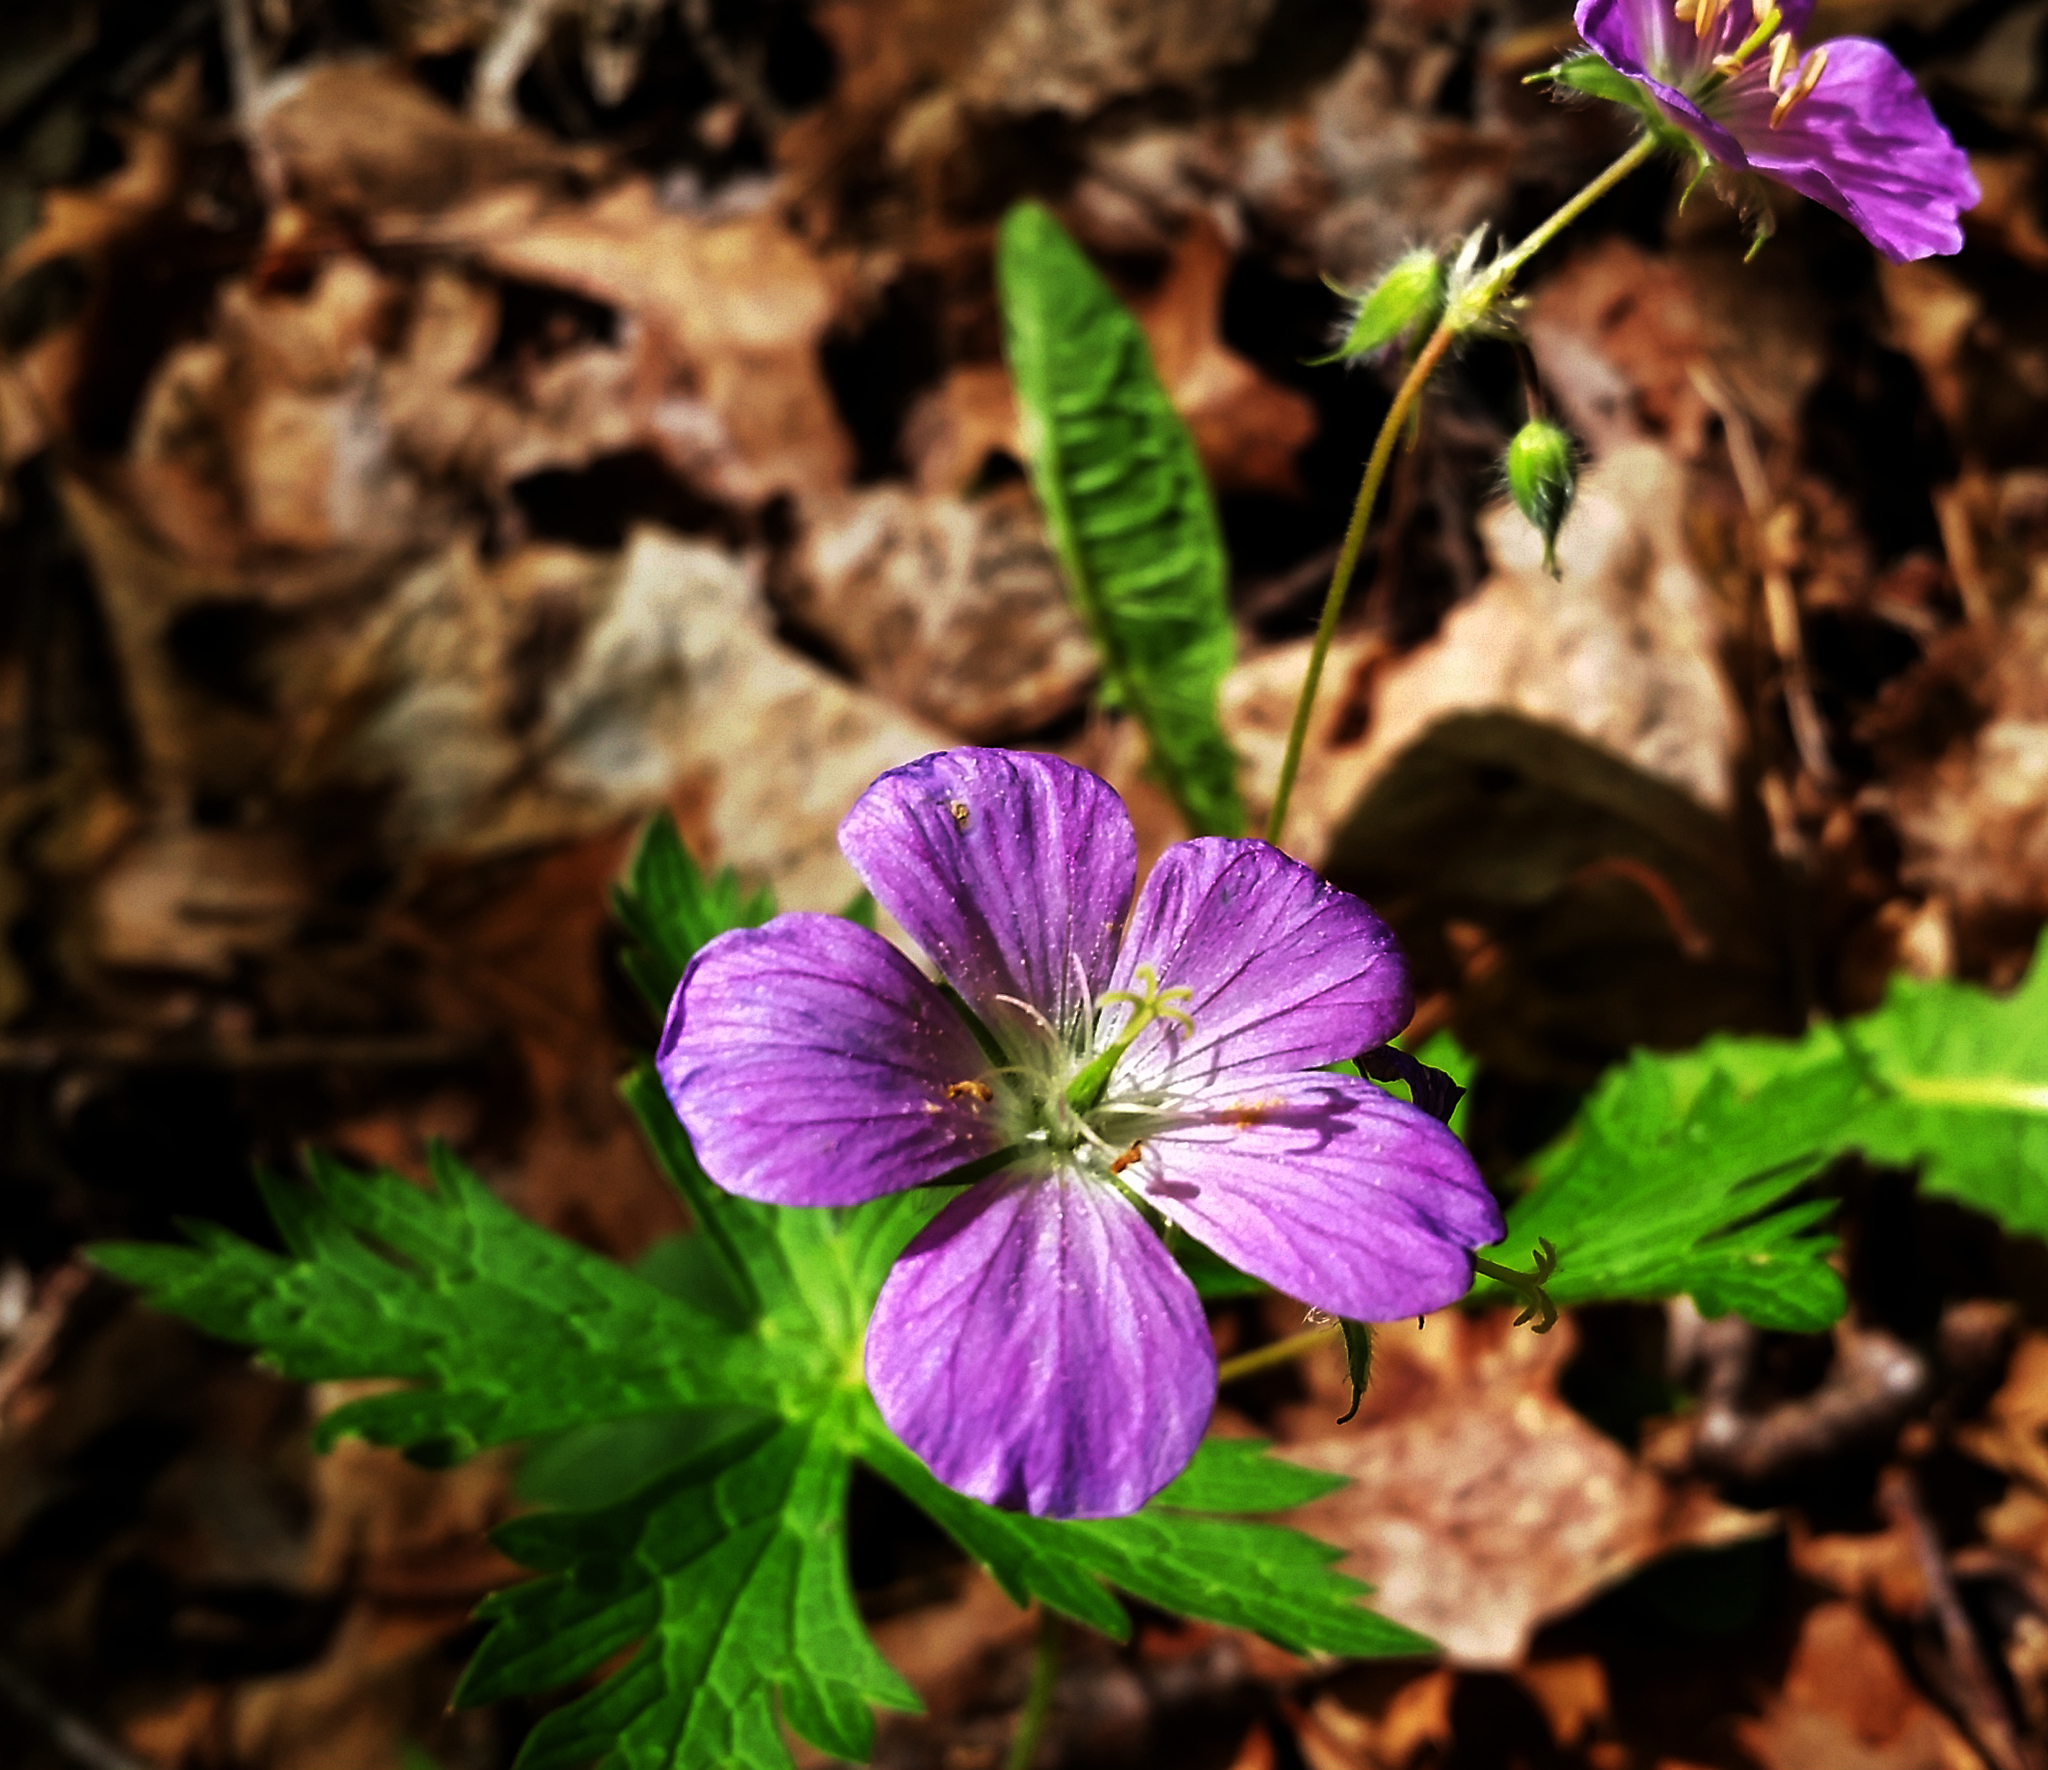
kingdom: Plantae
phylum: Tracheophyta
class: Magnoliopsida
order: Geraniales
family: Geraniaceae
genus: Geranium
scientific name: Geranium maculatum
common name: Spotted geranium
